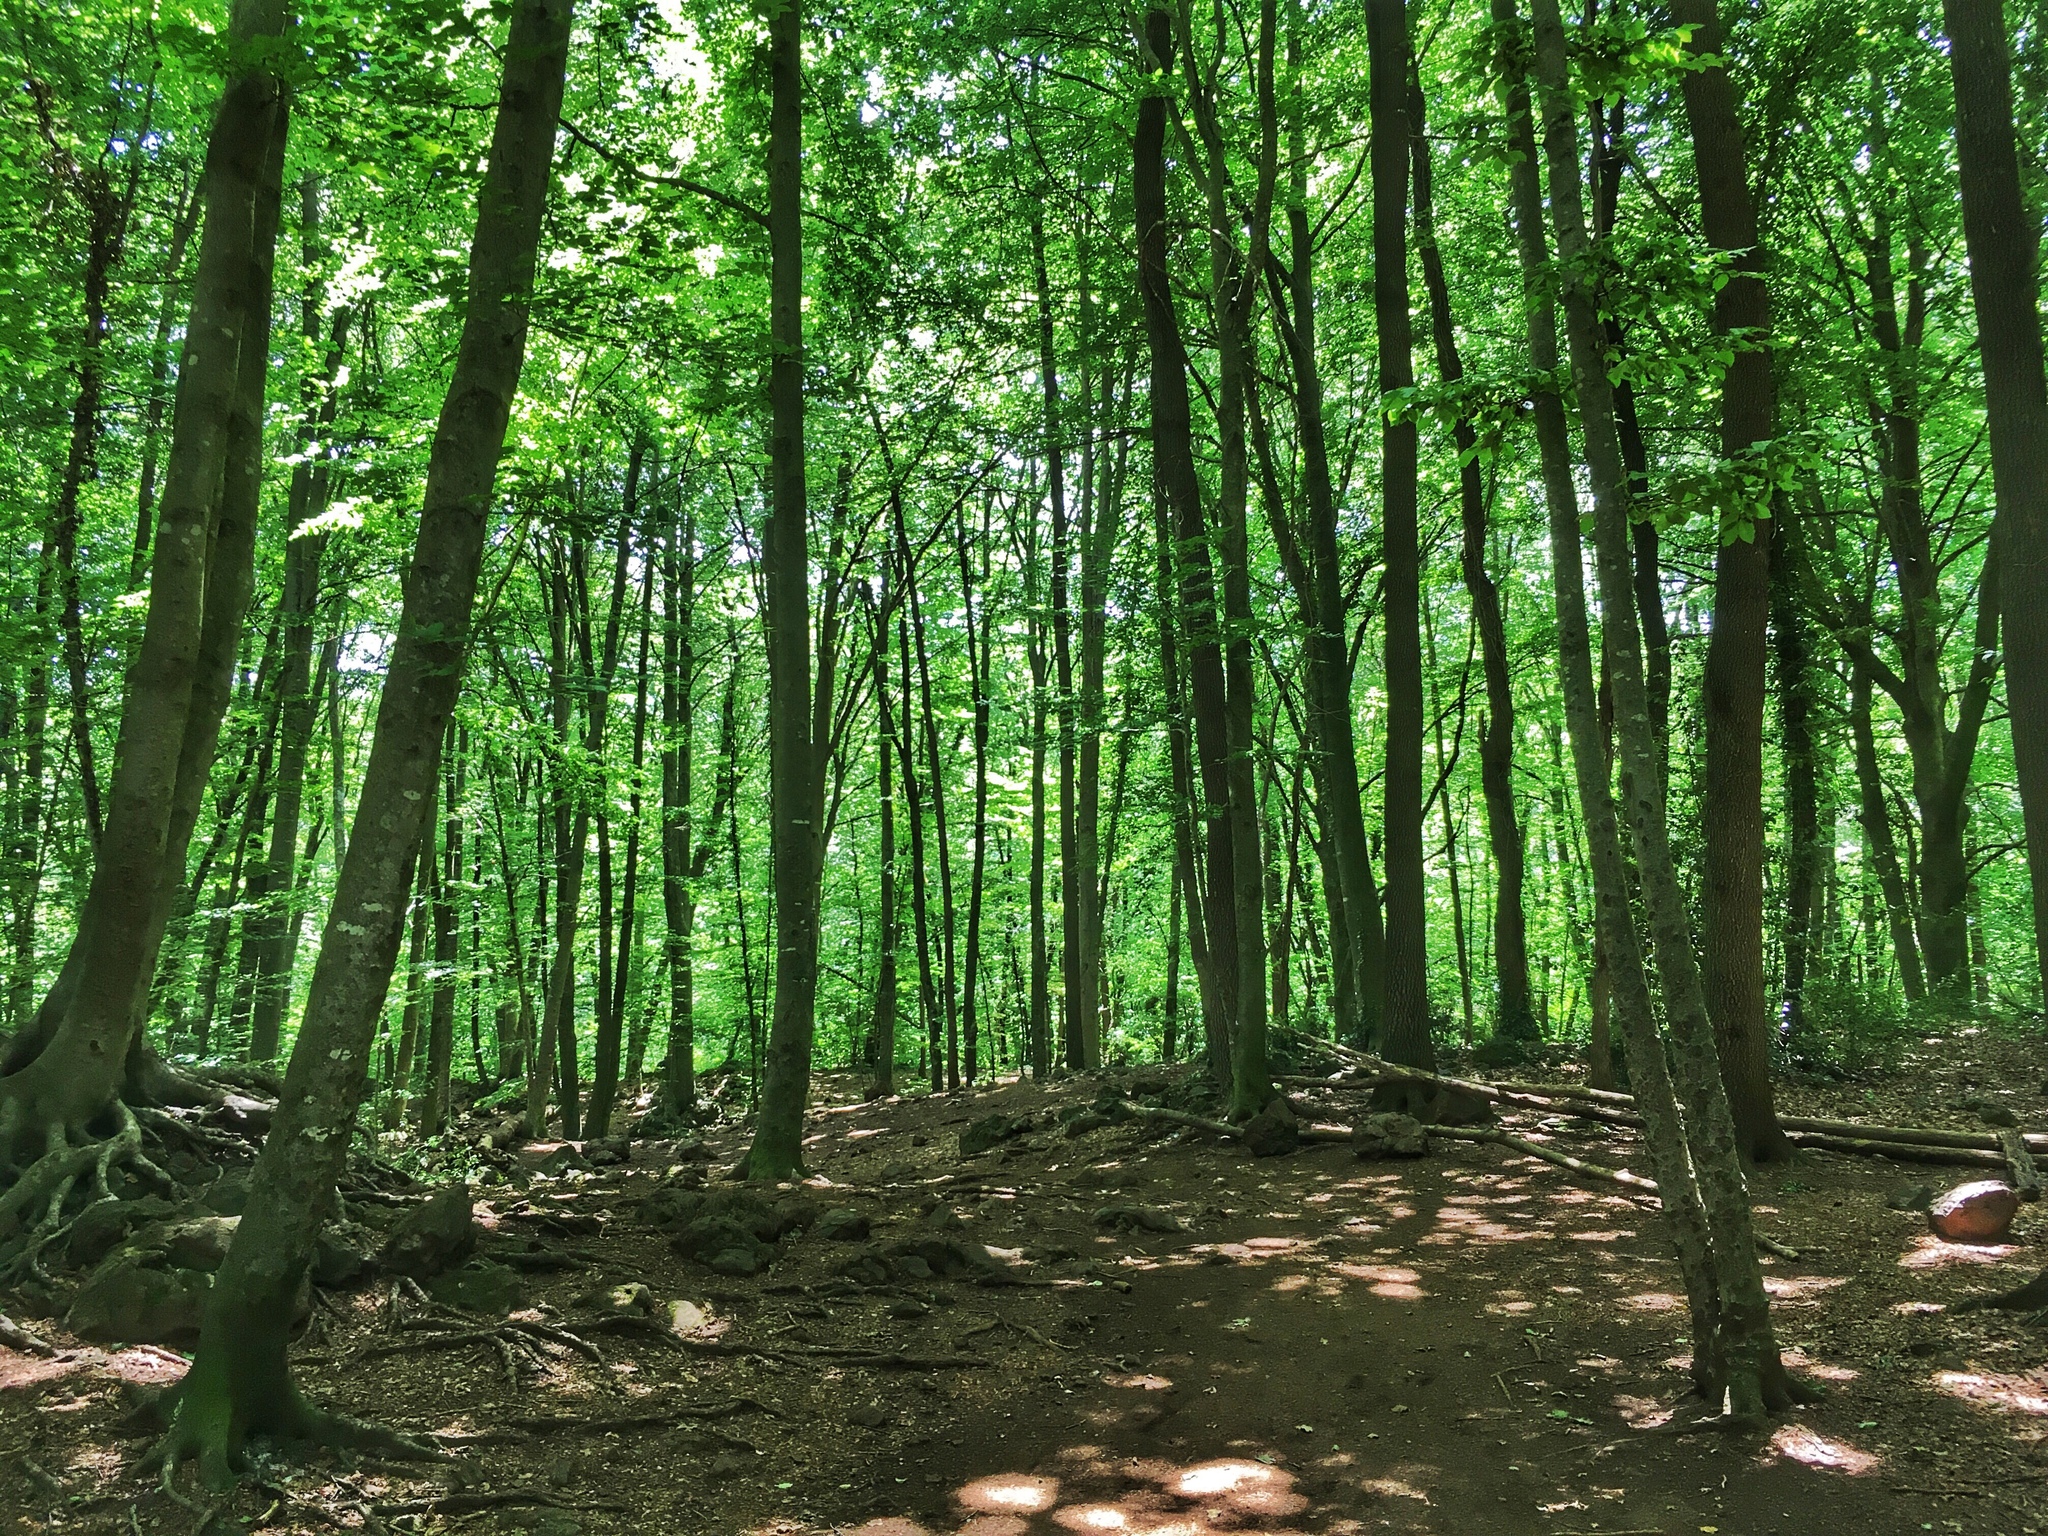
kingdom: Plantae
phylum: Tracheophyta
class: Magnoliopsida
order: Fagales
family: Fagaceae
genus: Fagus
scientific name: Fagus sylvatica
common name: Beech
